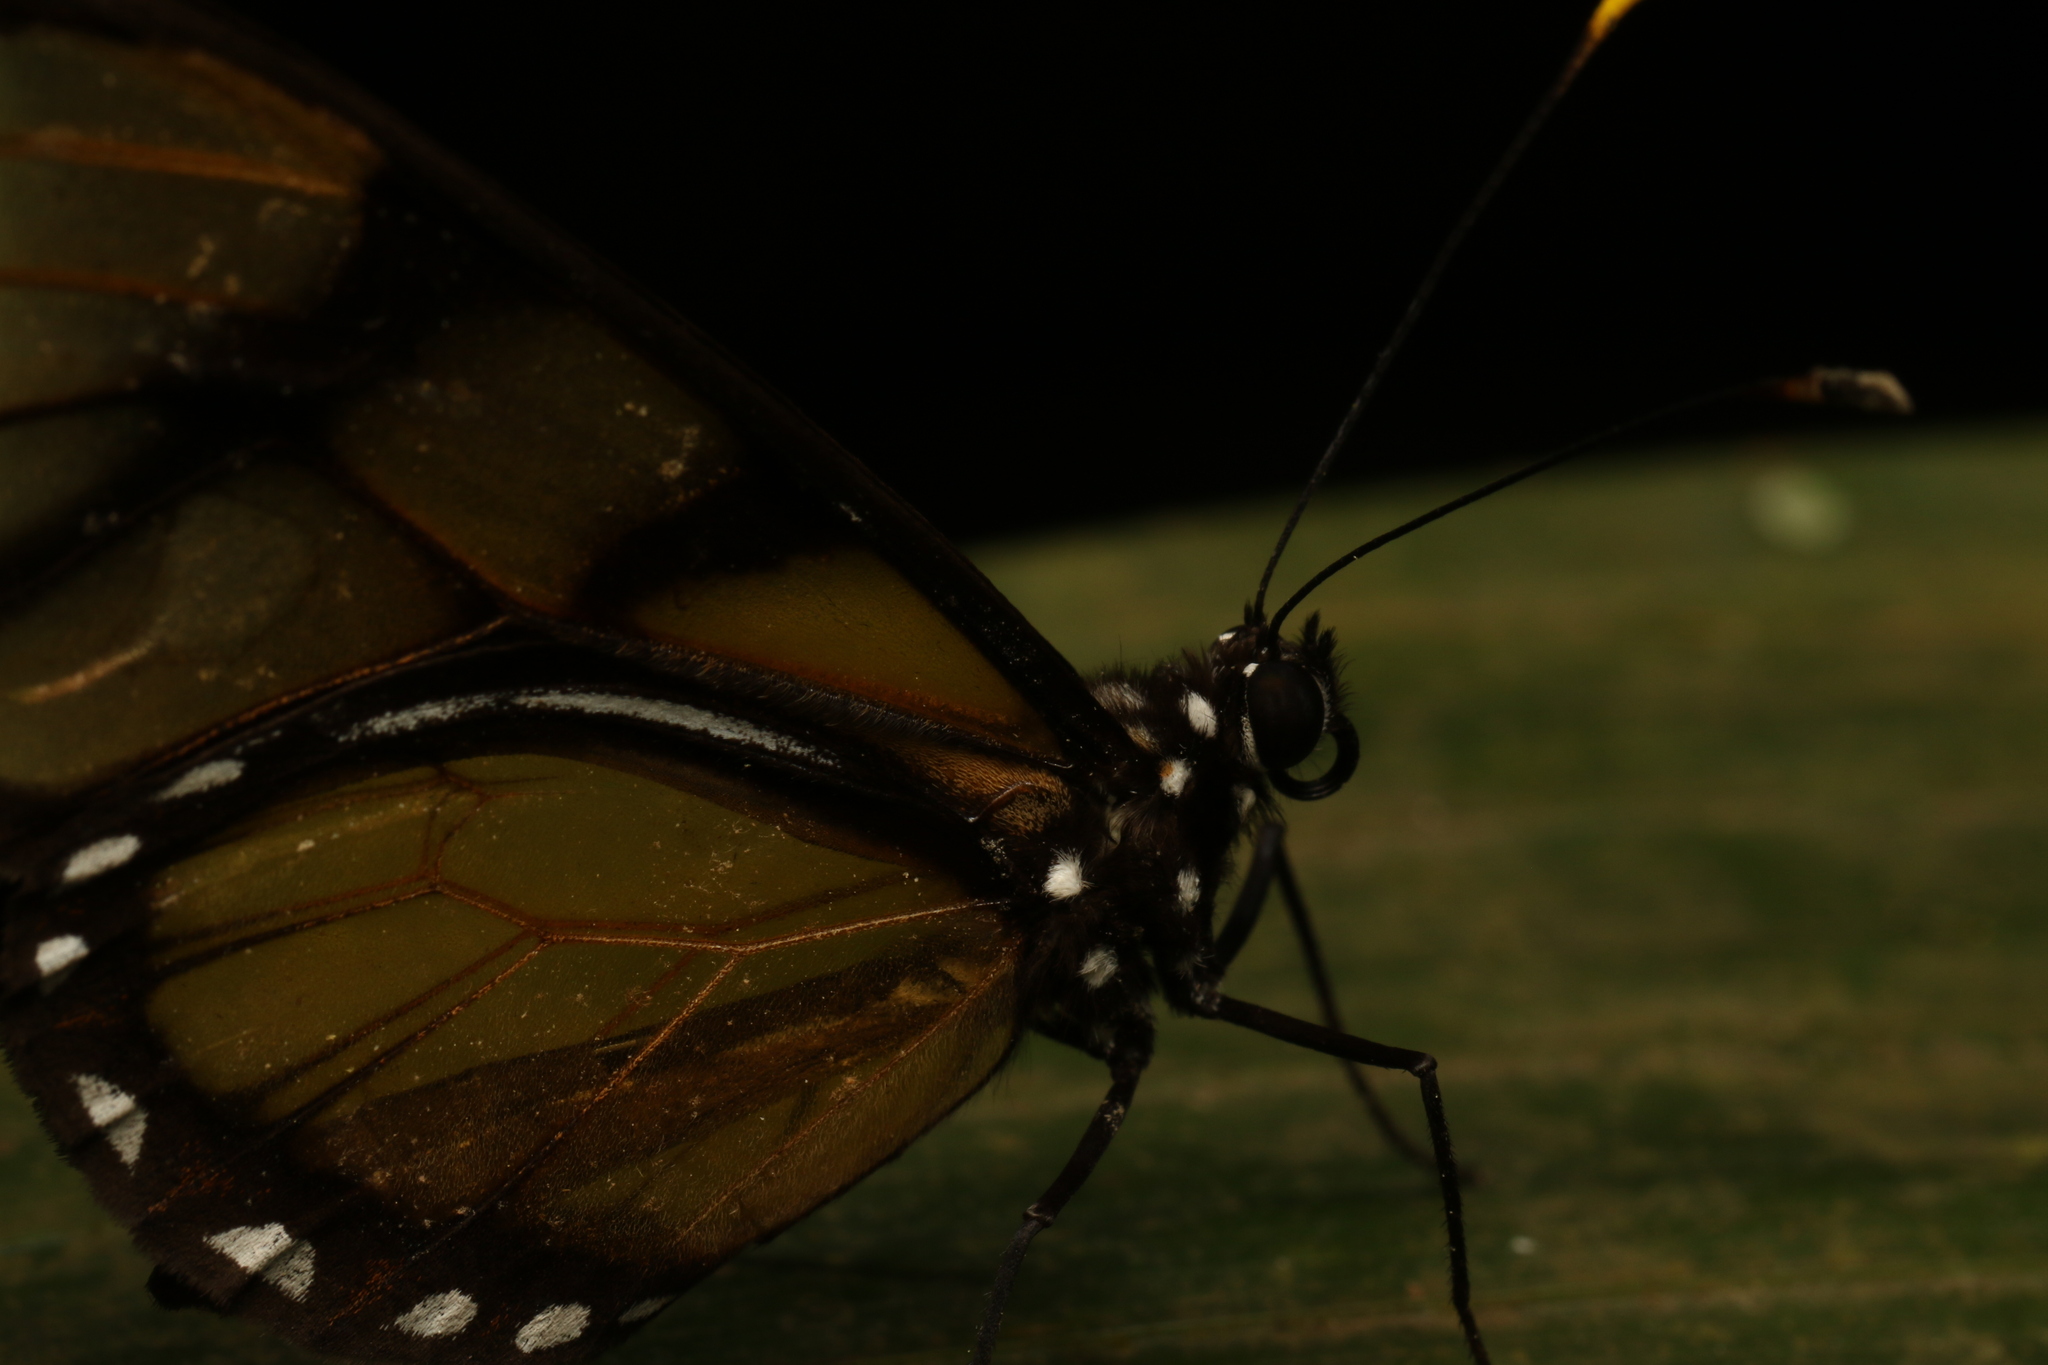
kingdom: Animalia
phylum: Arthropoda
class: Insecta
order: Lepidoptera
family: Nymphalidae
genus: Dircenna
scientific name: Dircenna dero
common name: Dero clearwing
